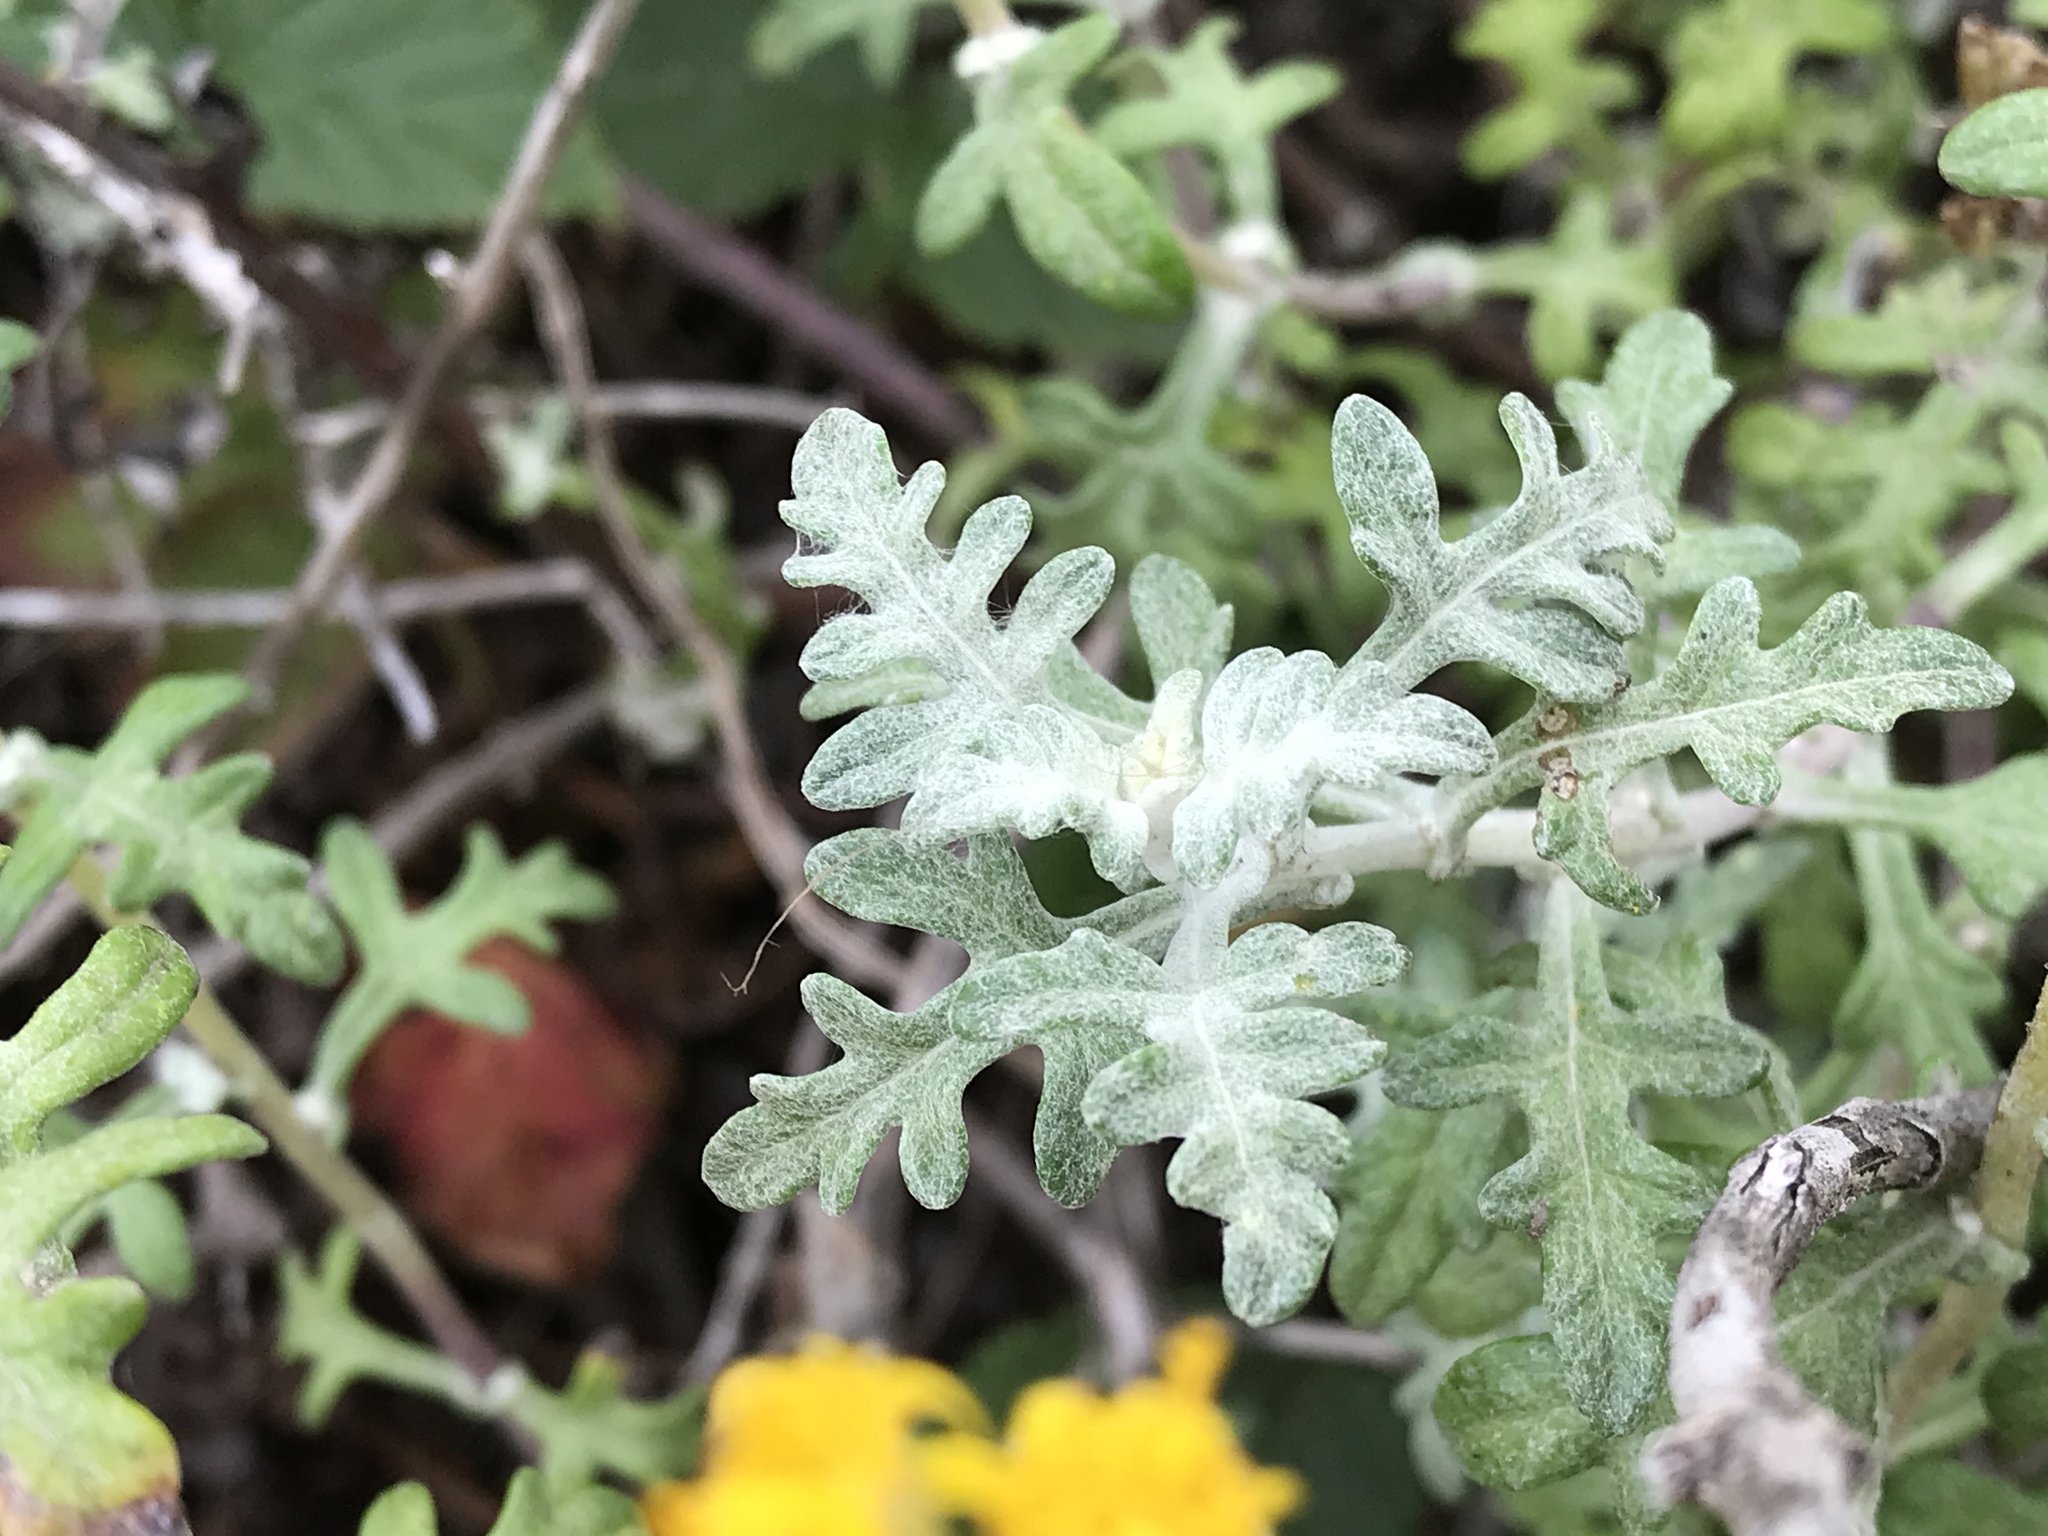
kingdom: Plantae
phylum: Tracheophyta
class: Magnoliopsida
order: Asterales
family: Asteraceae
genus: Eriophyllum
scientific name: Eriophyllum staechadifolium
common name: Lizardtail
